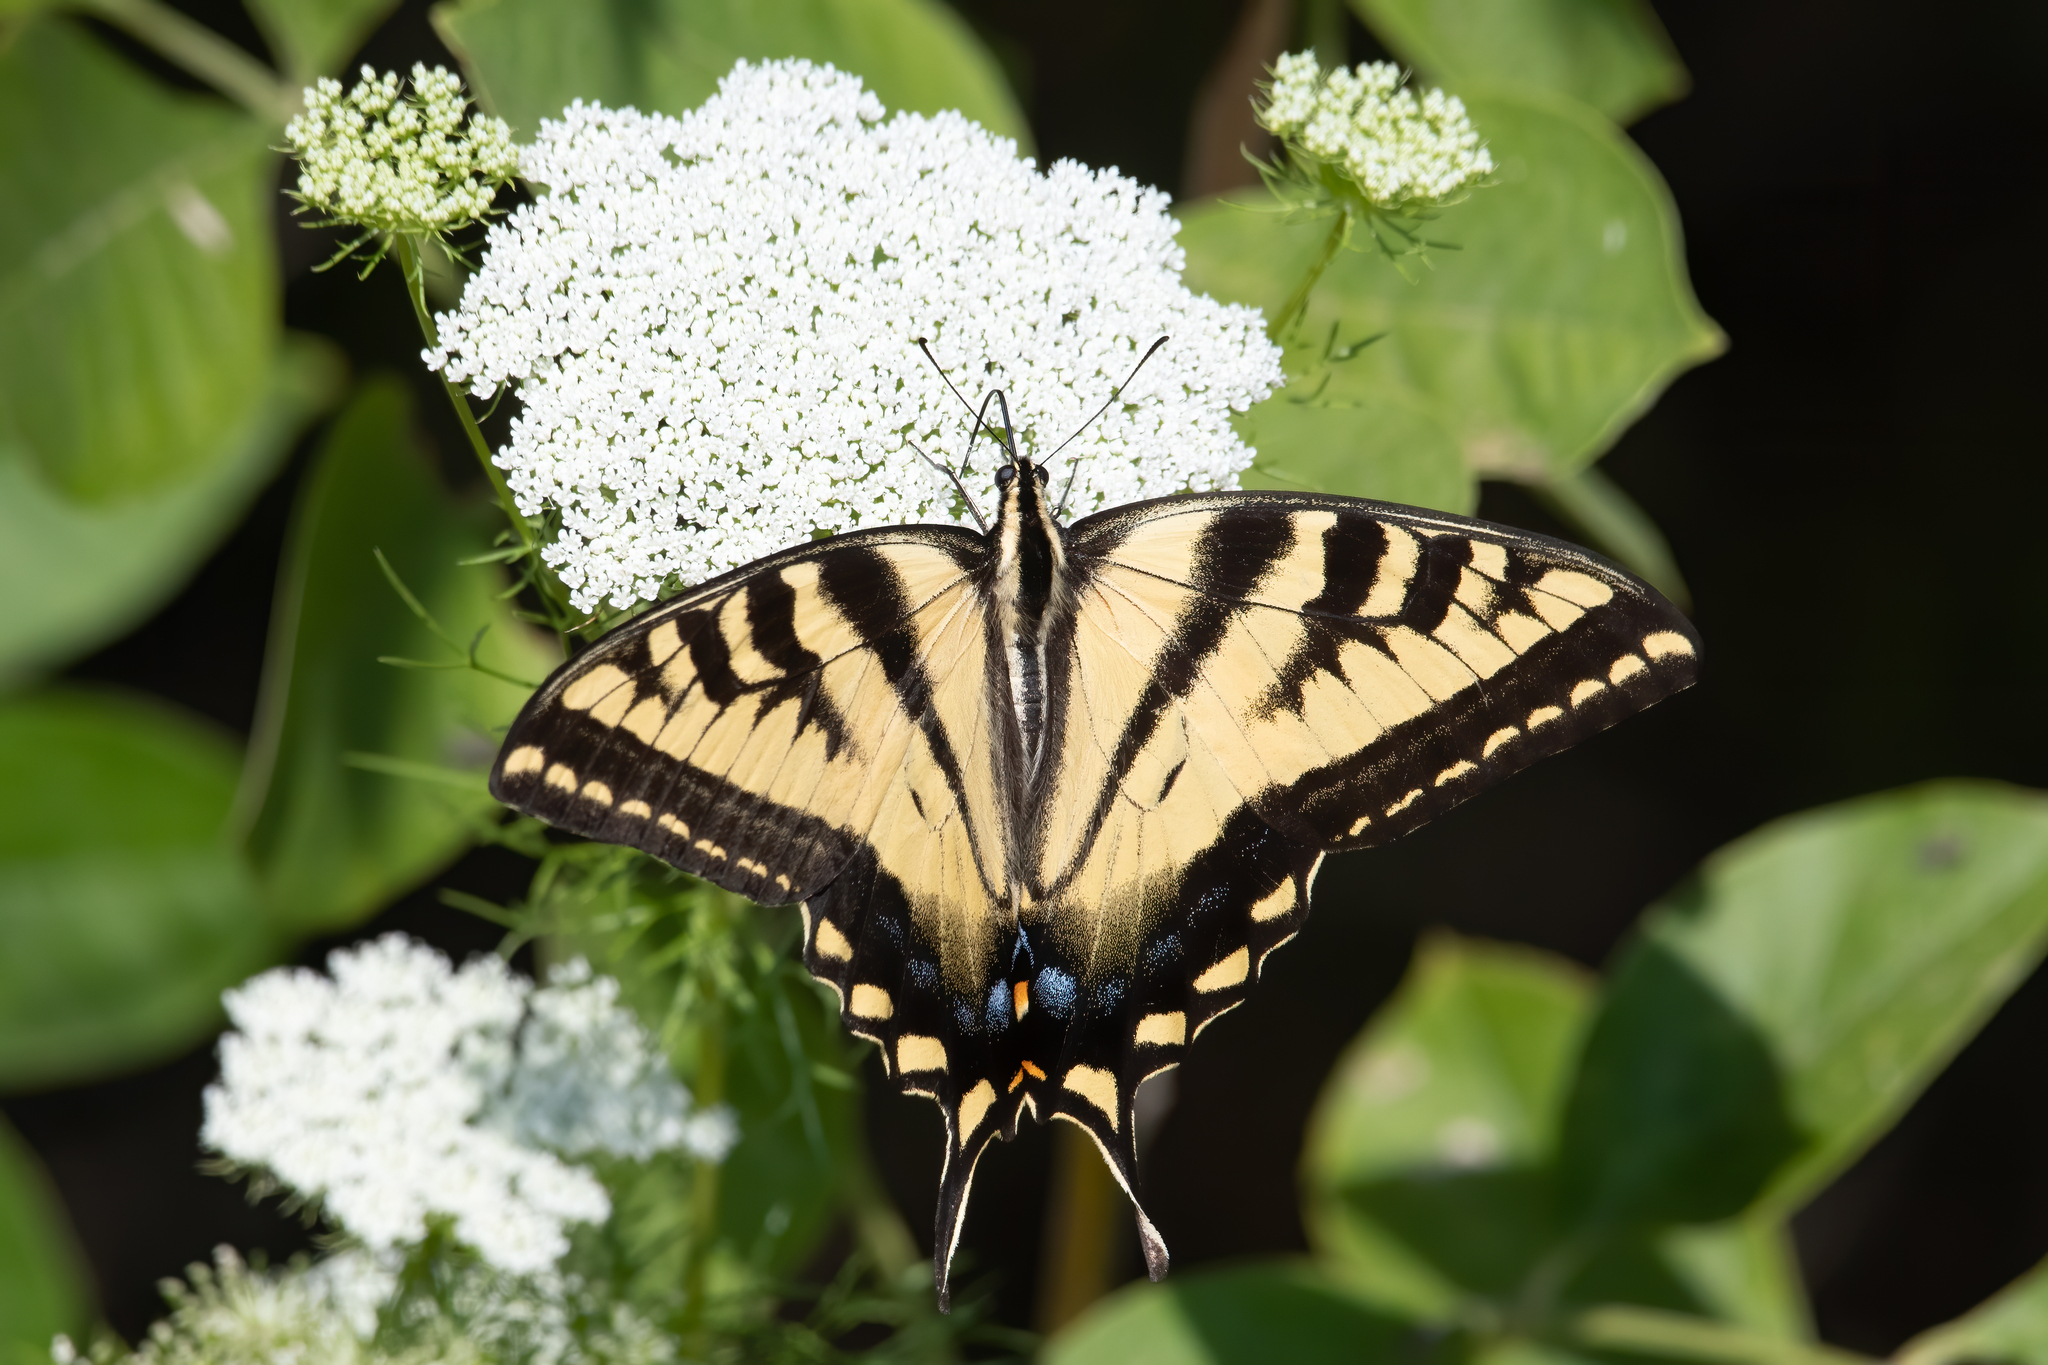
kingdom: Animalia
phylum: Arthropoda
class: Insecta
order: Lepidoptera
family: Papilionidae
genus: Papilio
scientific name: Papilio rutulus
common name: Western tiger swallowtail
